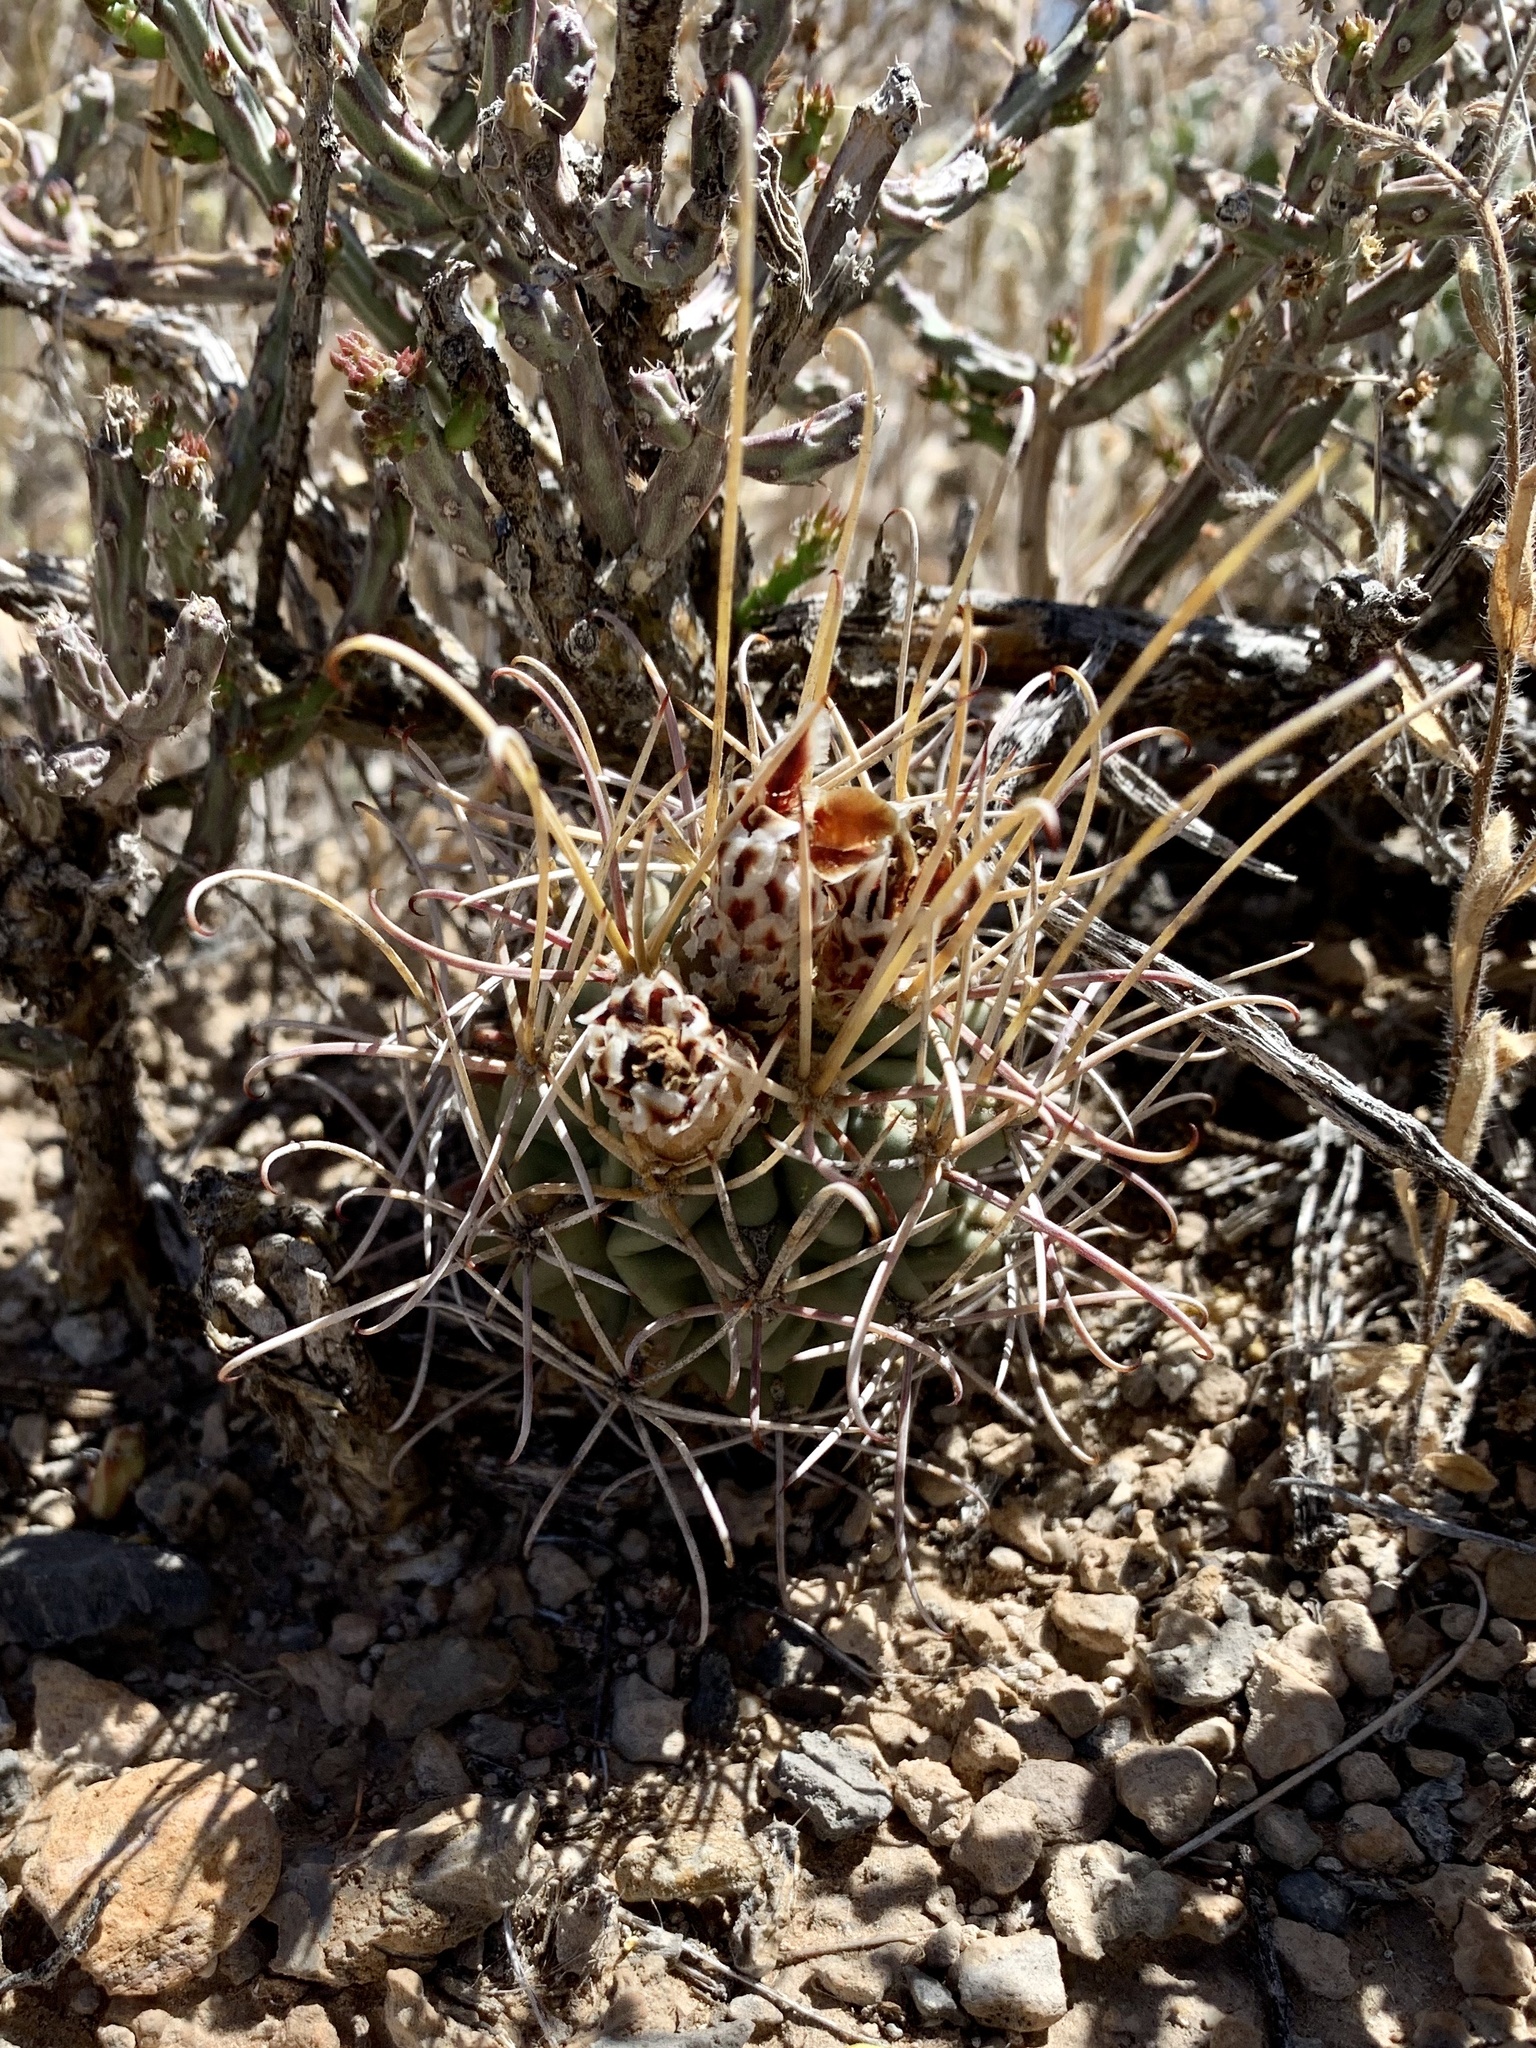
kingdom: Plantae
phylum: Tracheophyta
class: Magnoliopsida
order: Caryophyllales
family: Cactaceae
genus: Ferocactus
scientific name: Ferocactus uncinatus
